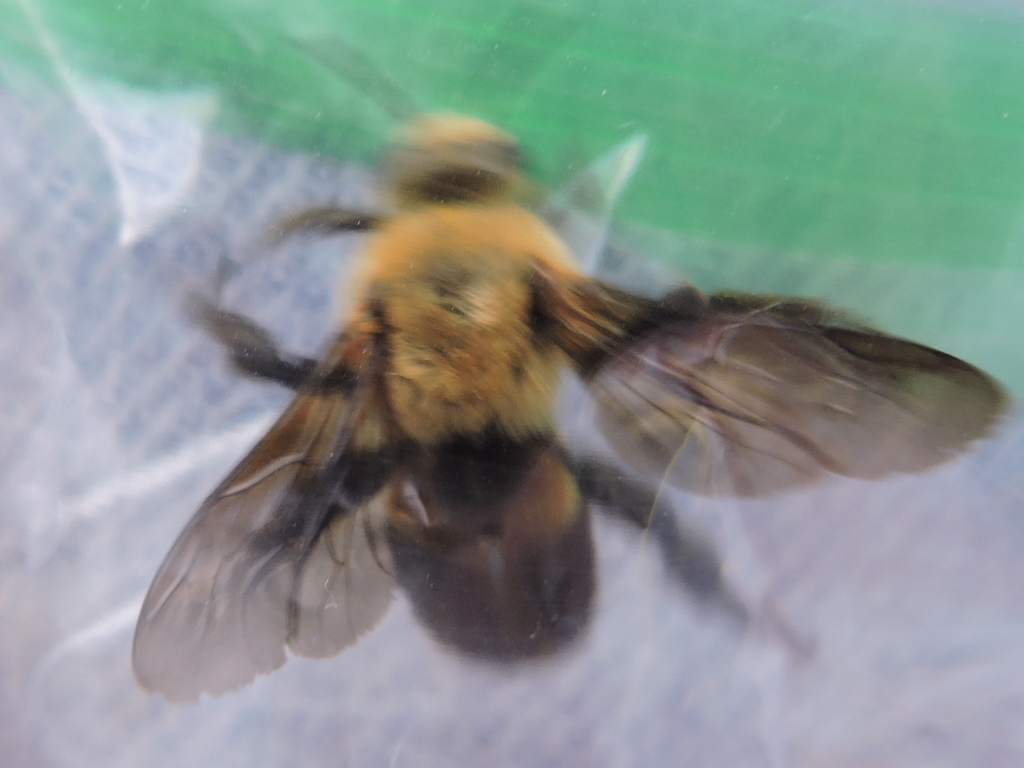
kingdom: Animalia
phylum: Arthropoda
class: Insecta
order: Hymenoptera
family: Apidae
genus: Ptilothrix
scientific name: Ptilothrix bombiformis
